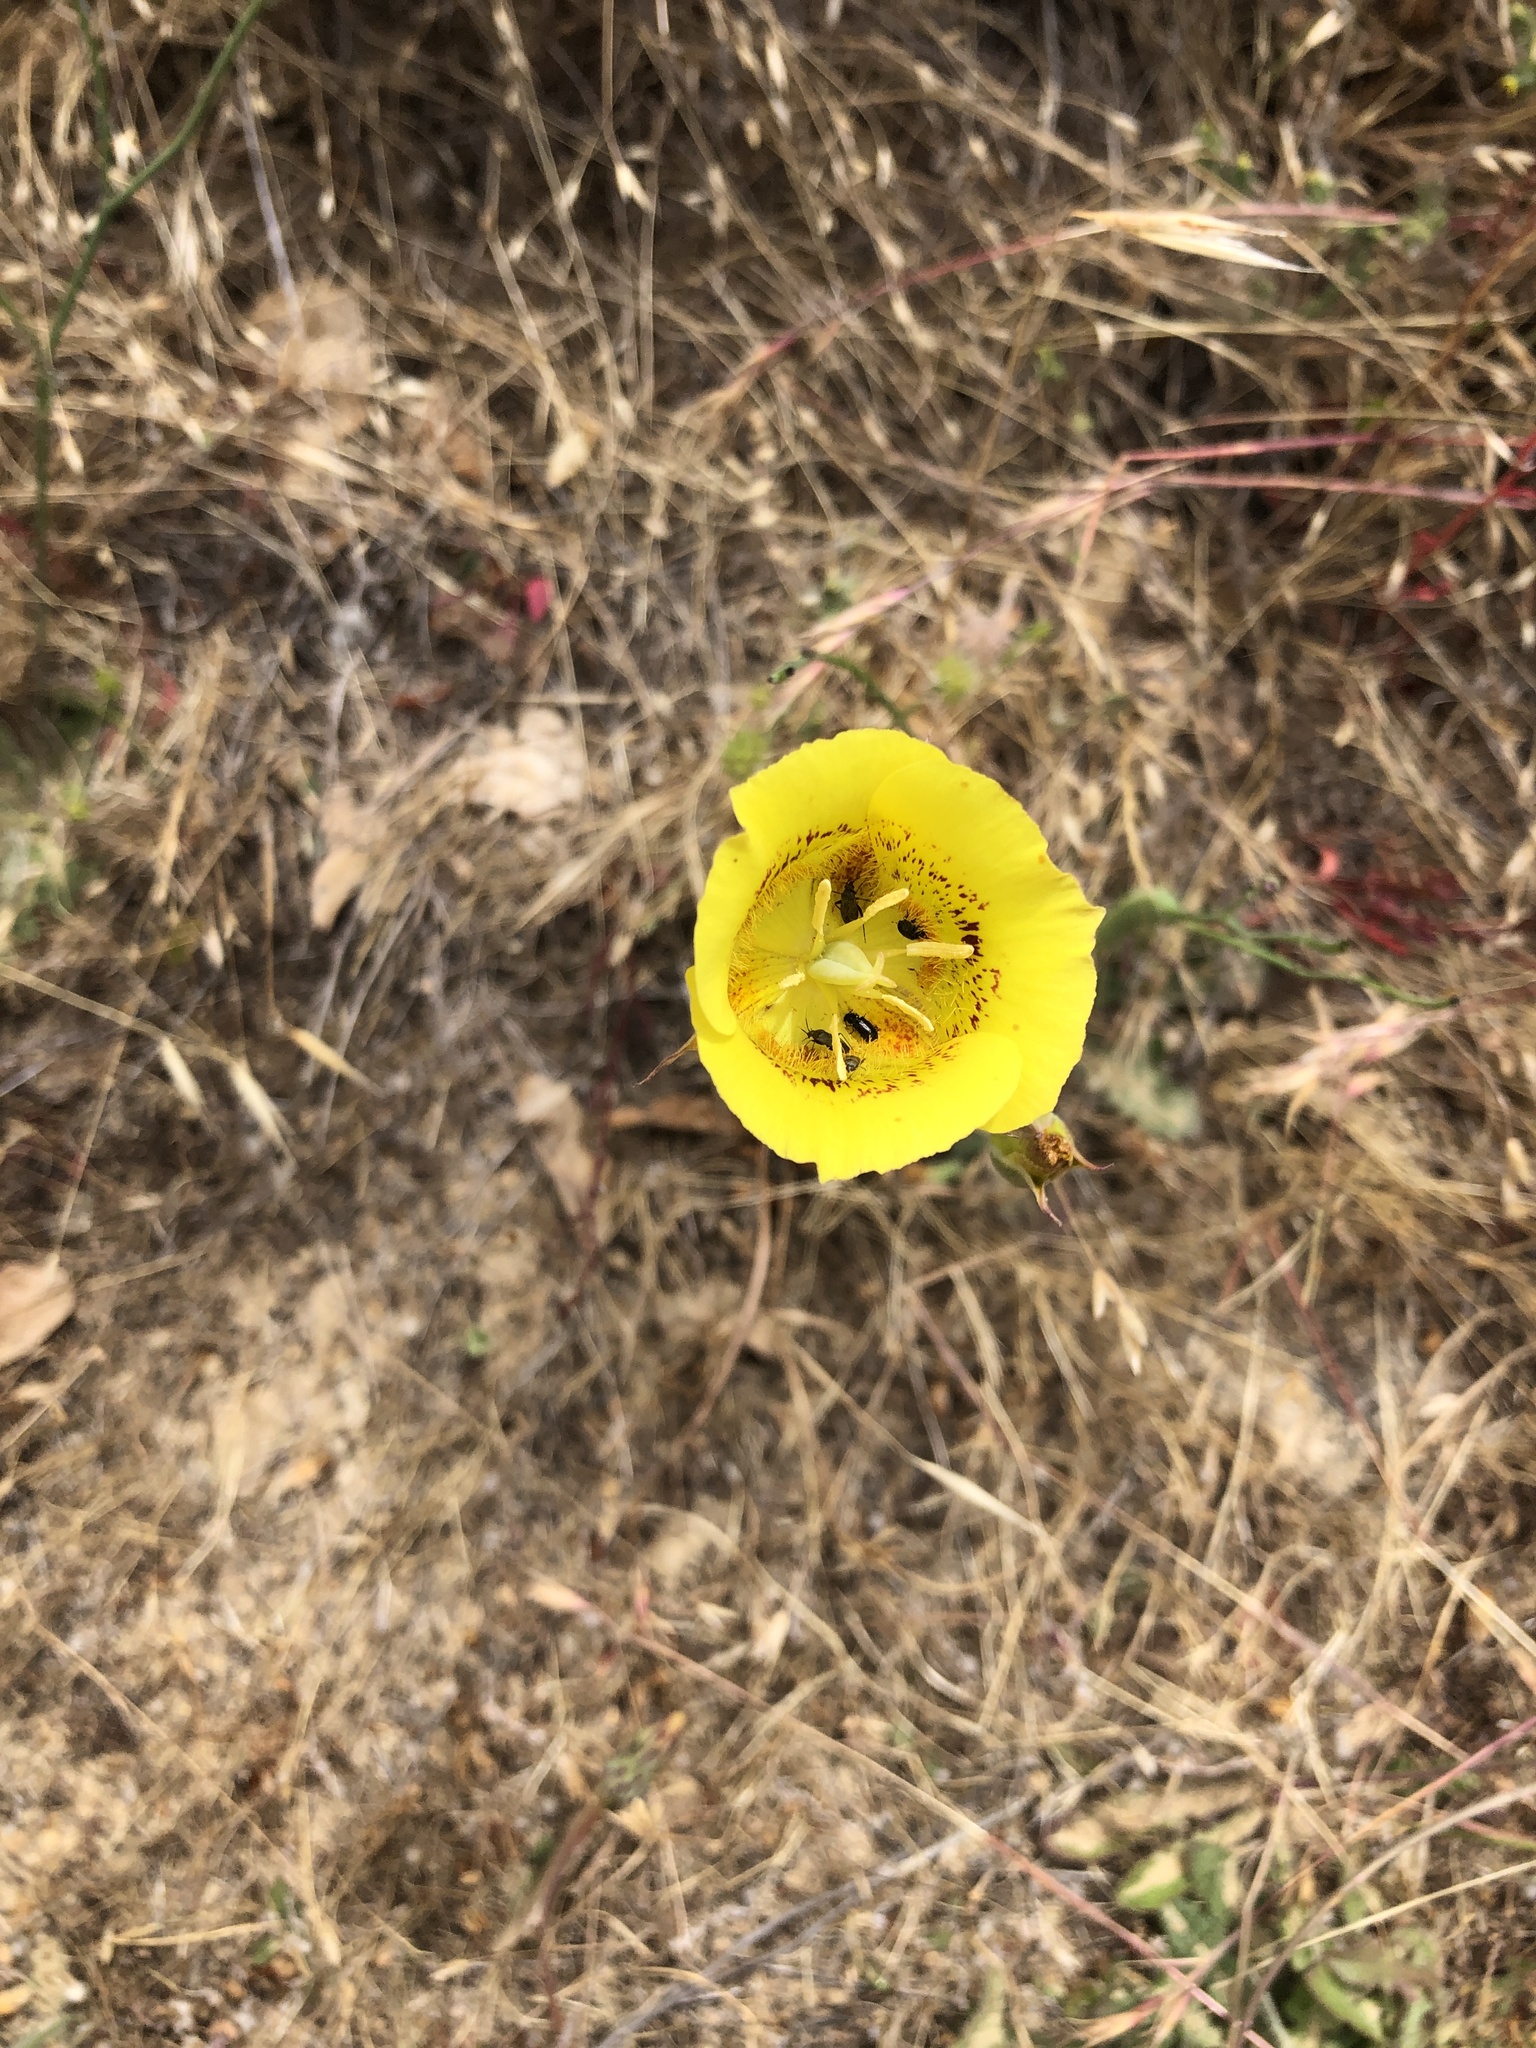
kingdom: Plantae
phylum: Tracheophyta
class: Liliopsida
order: Liliales
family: Liliaceae
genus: Calochortus
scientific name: Calochortus luteus
